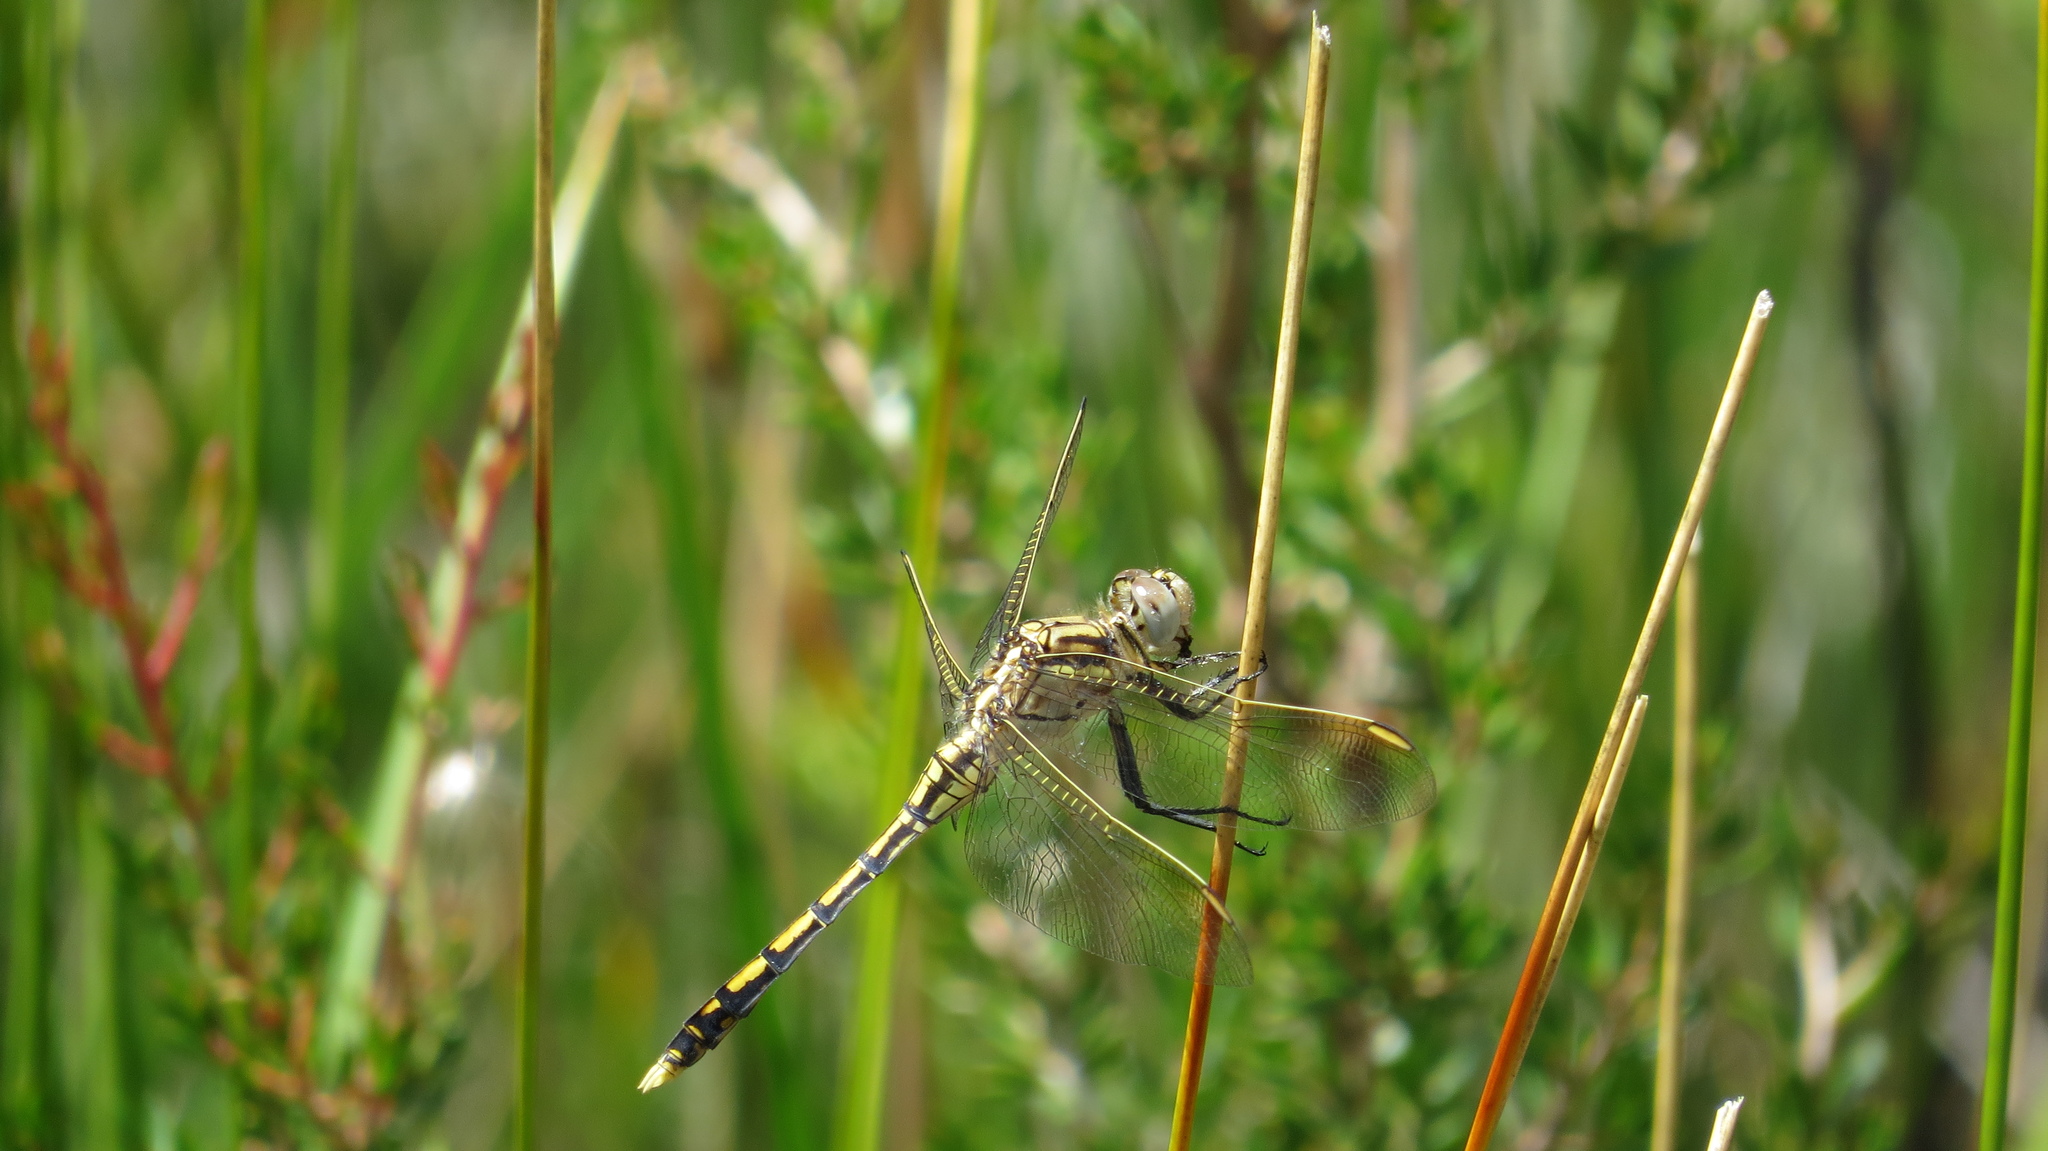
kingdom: Animalia
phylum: Arthropoda
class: Insecta
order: Odonata
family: Libellulidae
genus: Orthetrum
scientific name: Orthetrum caledonicum
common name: Blue skimmer
